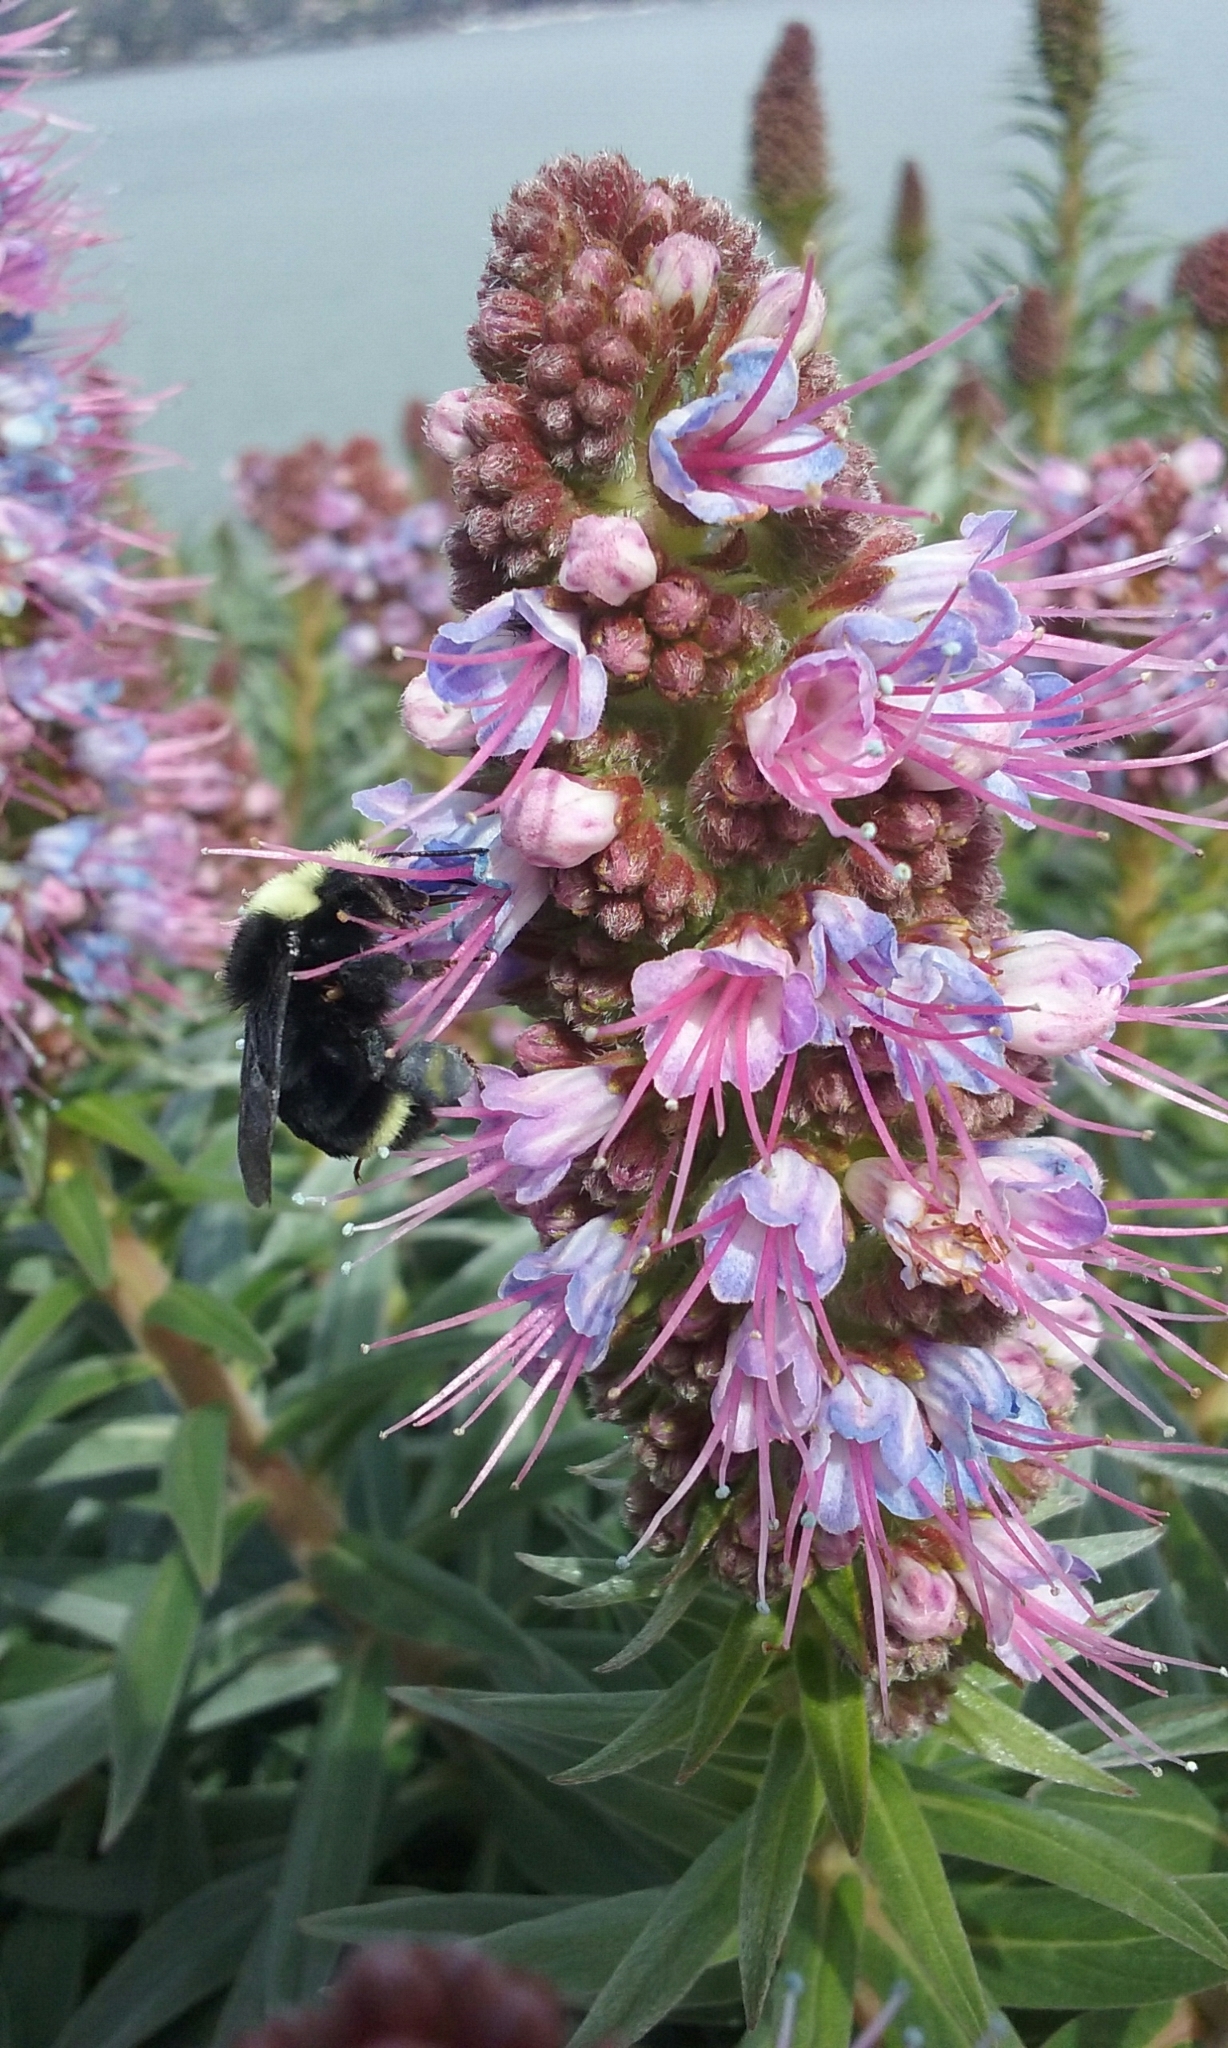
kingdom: Animalia
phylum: Arthropoda
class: Insecta
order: Hymenoptera
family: Apidae
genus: Pyrobombus
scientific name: Pyrobombus
